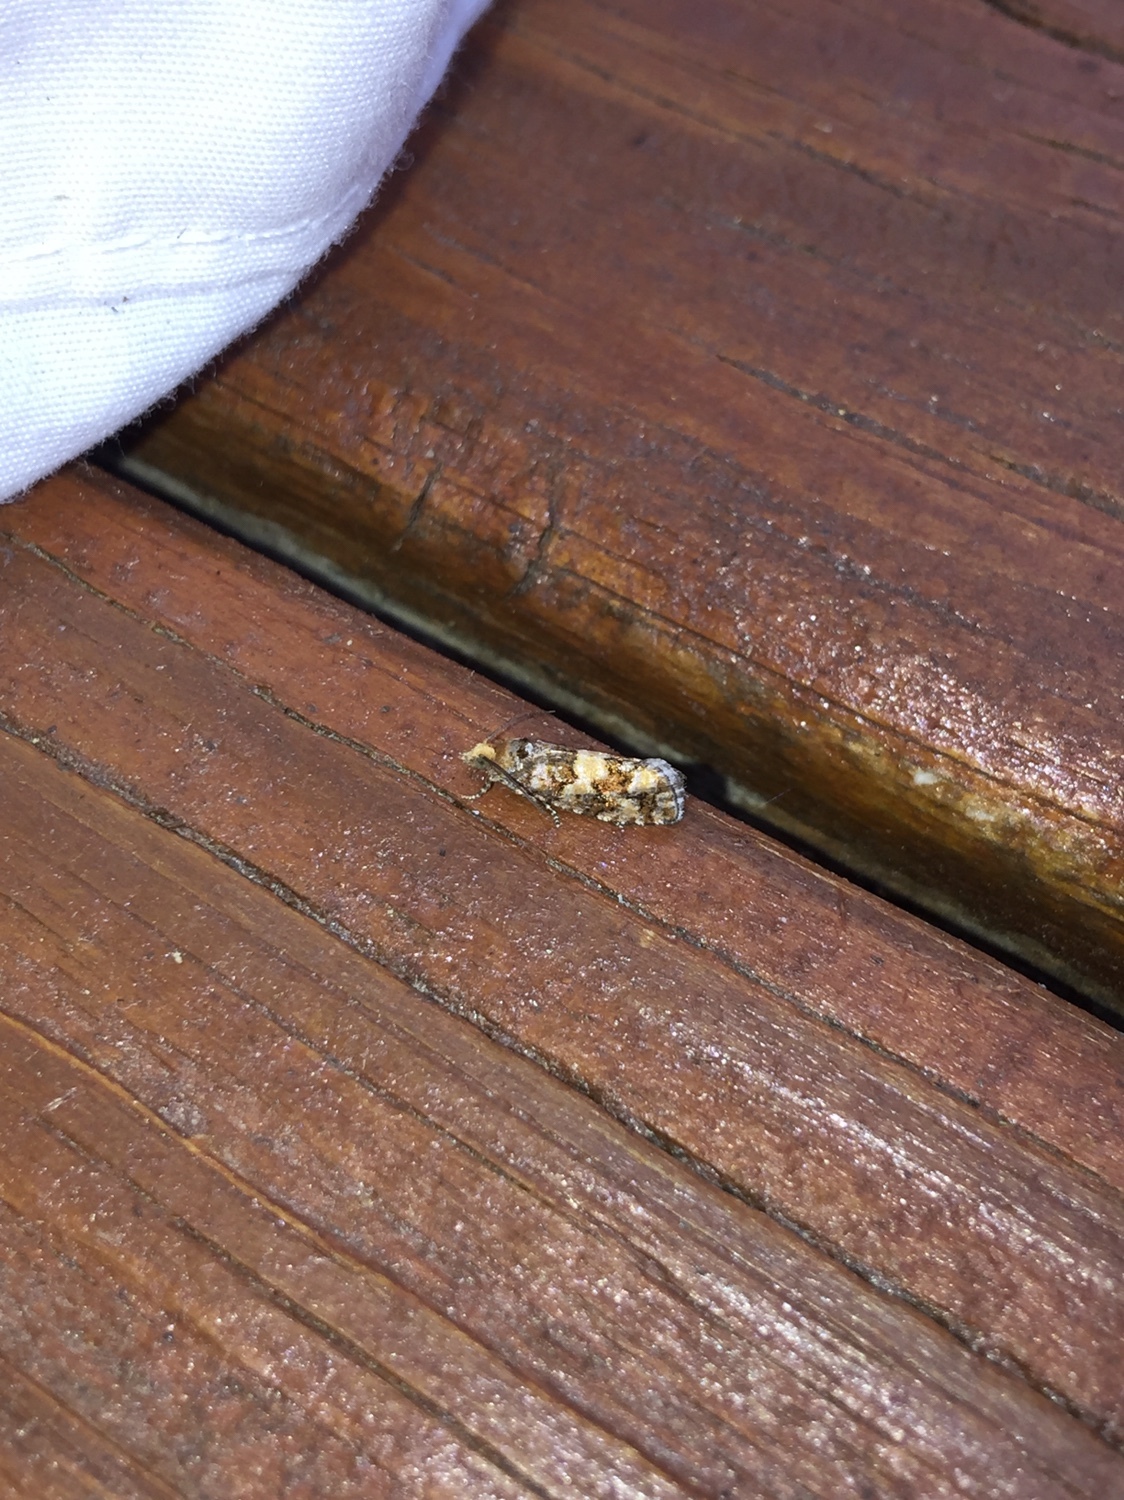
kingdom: Animalia
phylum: Arthropoda
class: Insecta
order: Lepidoptera
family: Tortricidae
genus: Eucopina
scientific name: Eucopina tocullionana
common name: White pinecone borer moth
